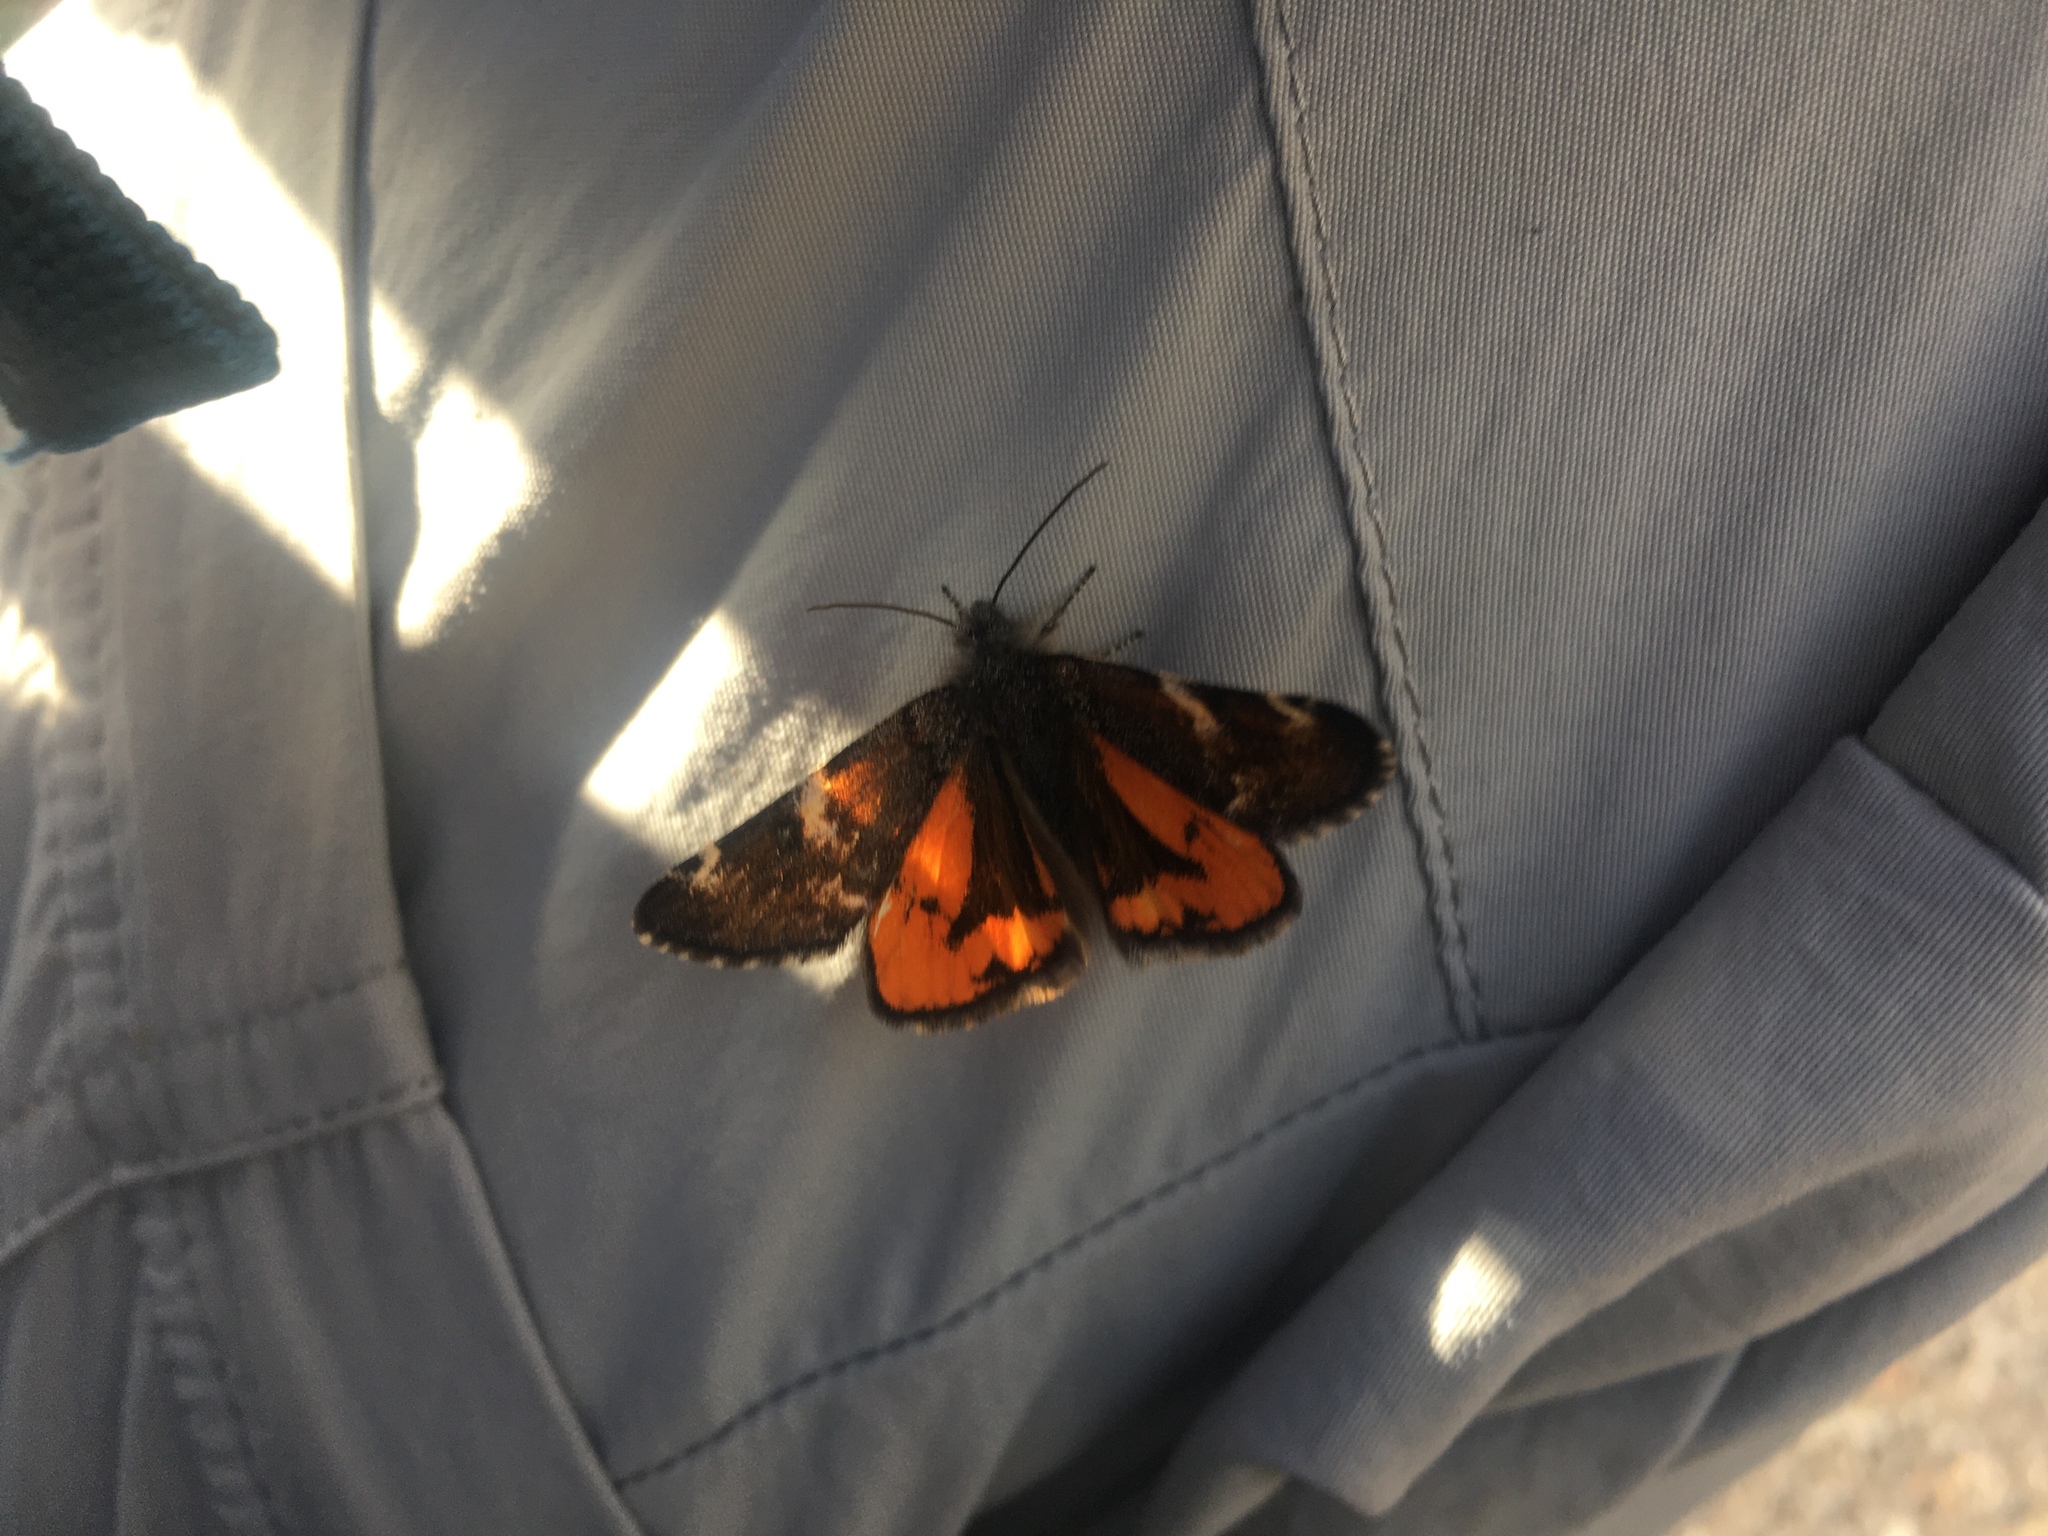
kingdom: Animalia
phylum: Arthropoda
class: Insecta
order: Lepidoptera
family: Geometridae
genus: Archiearis
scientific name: Archiearis infans
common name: First born geometer
